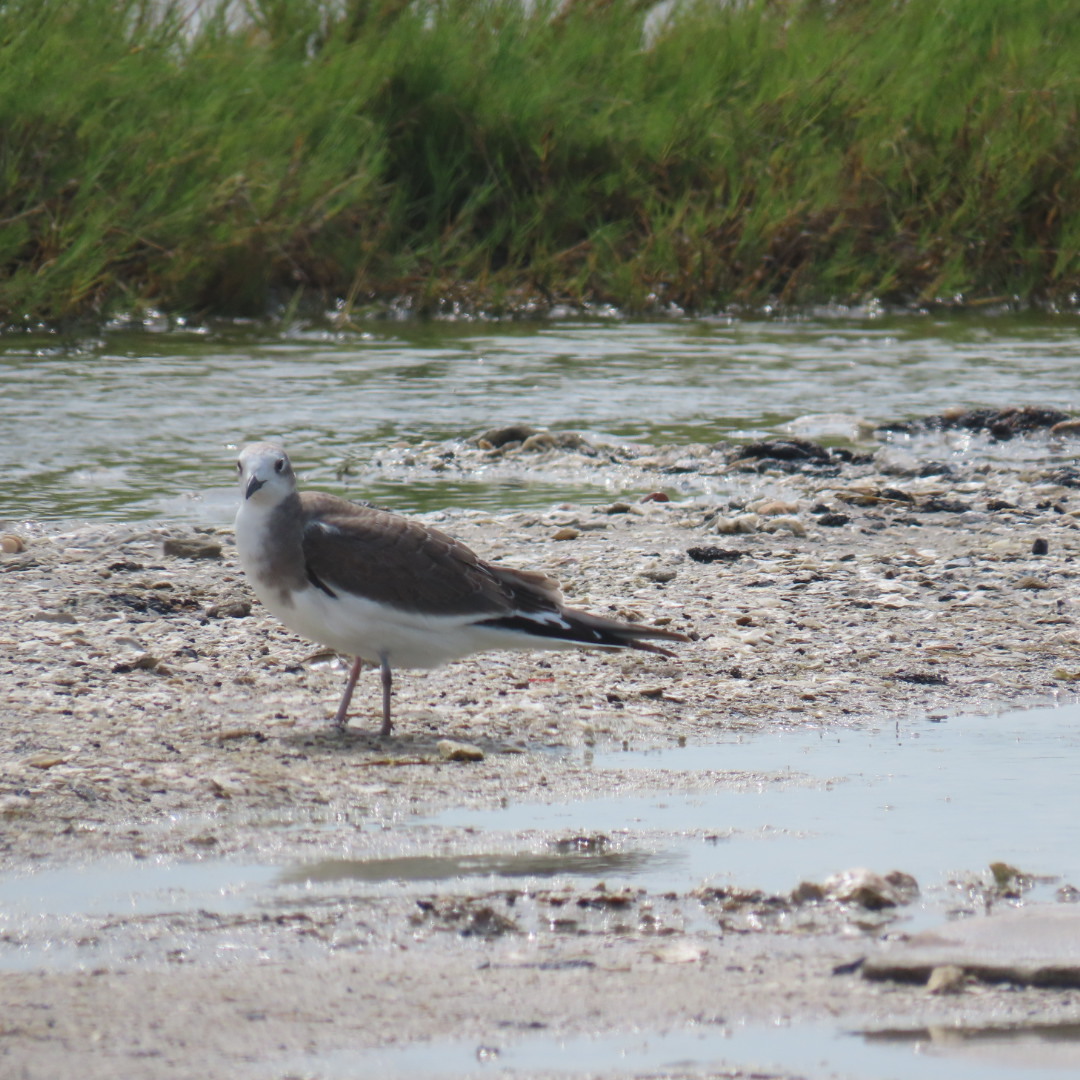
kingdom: Animalia
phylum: Chordata
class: Aves
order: Charadriiformes
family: Laridae
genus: Xema
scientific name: Xema sabini
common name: Sabine's gull
